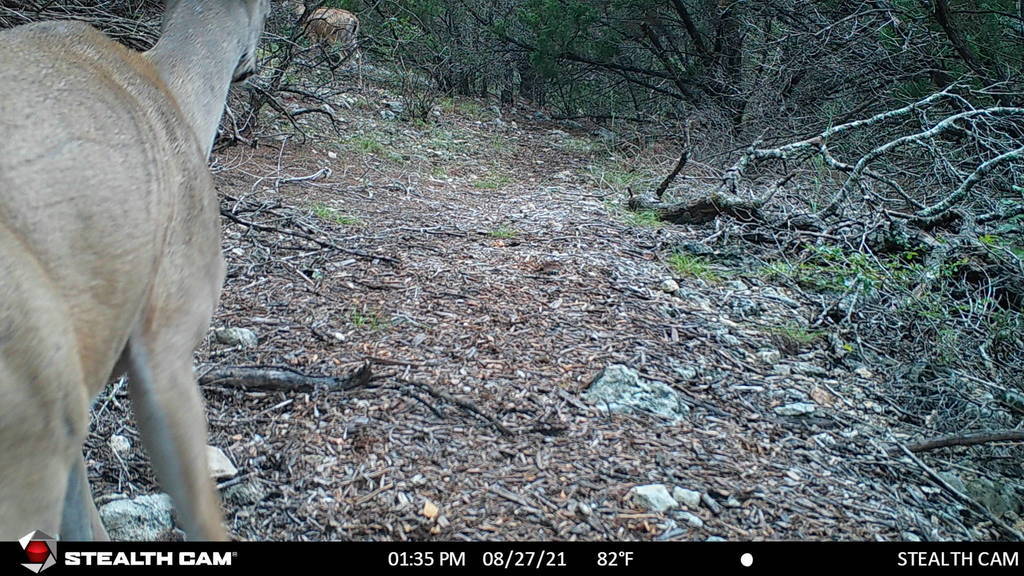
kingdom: Animalia
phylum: Chordata
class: Mammalia
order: Artiodactyla
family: Cervidae
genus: Odocoileus
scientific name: Odocoileus virginianus
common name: White-tailed deer
